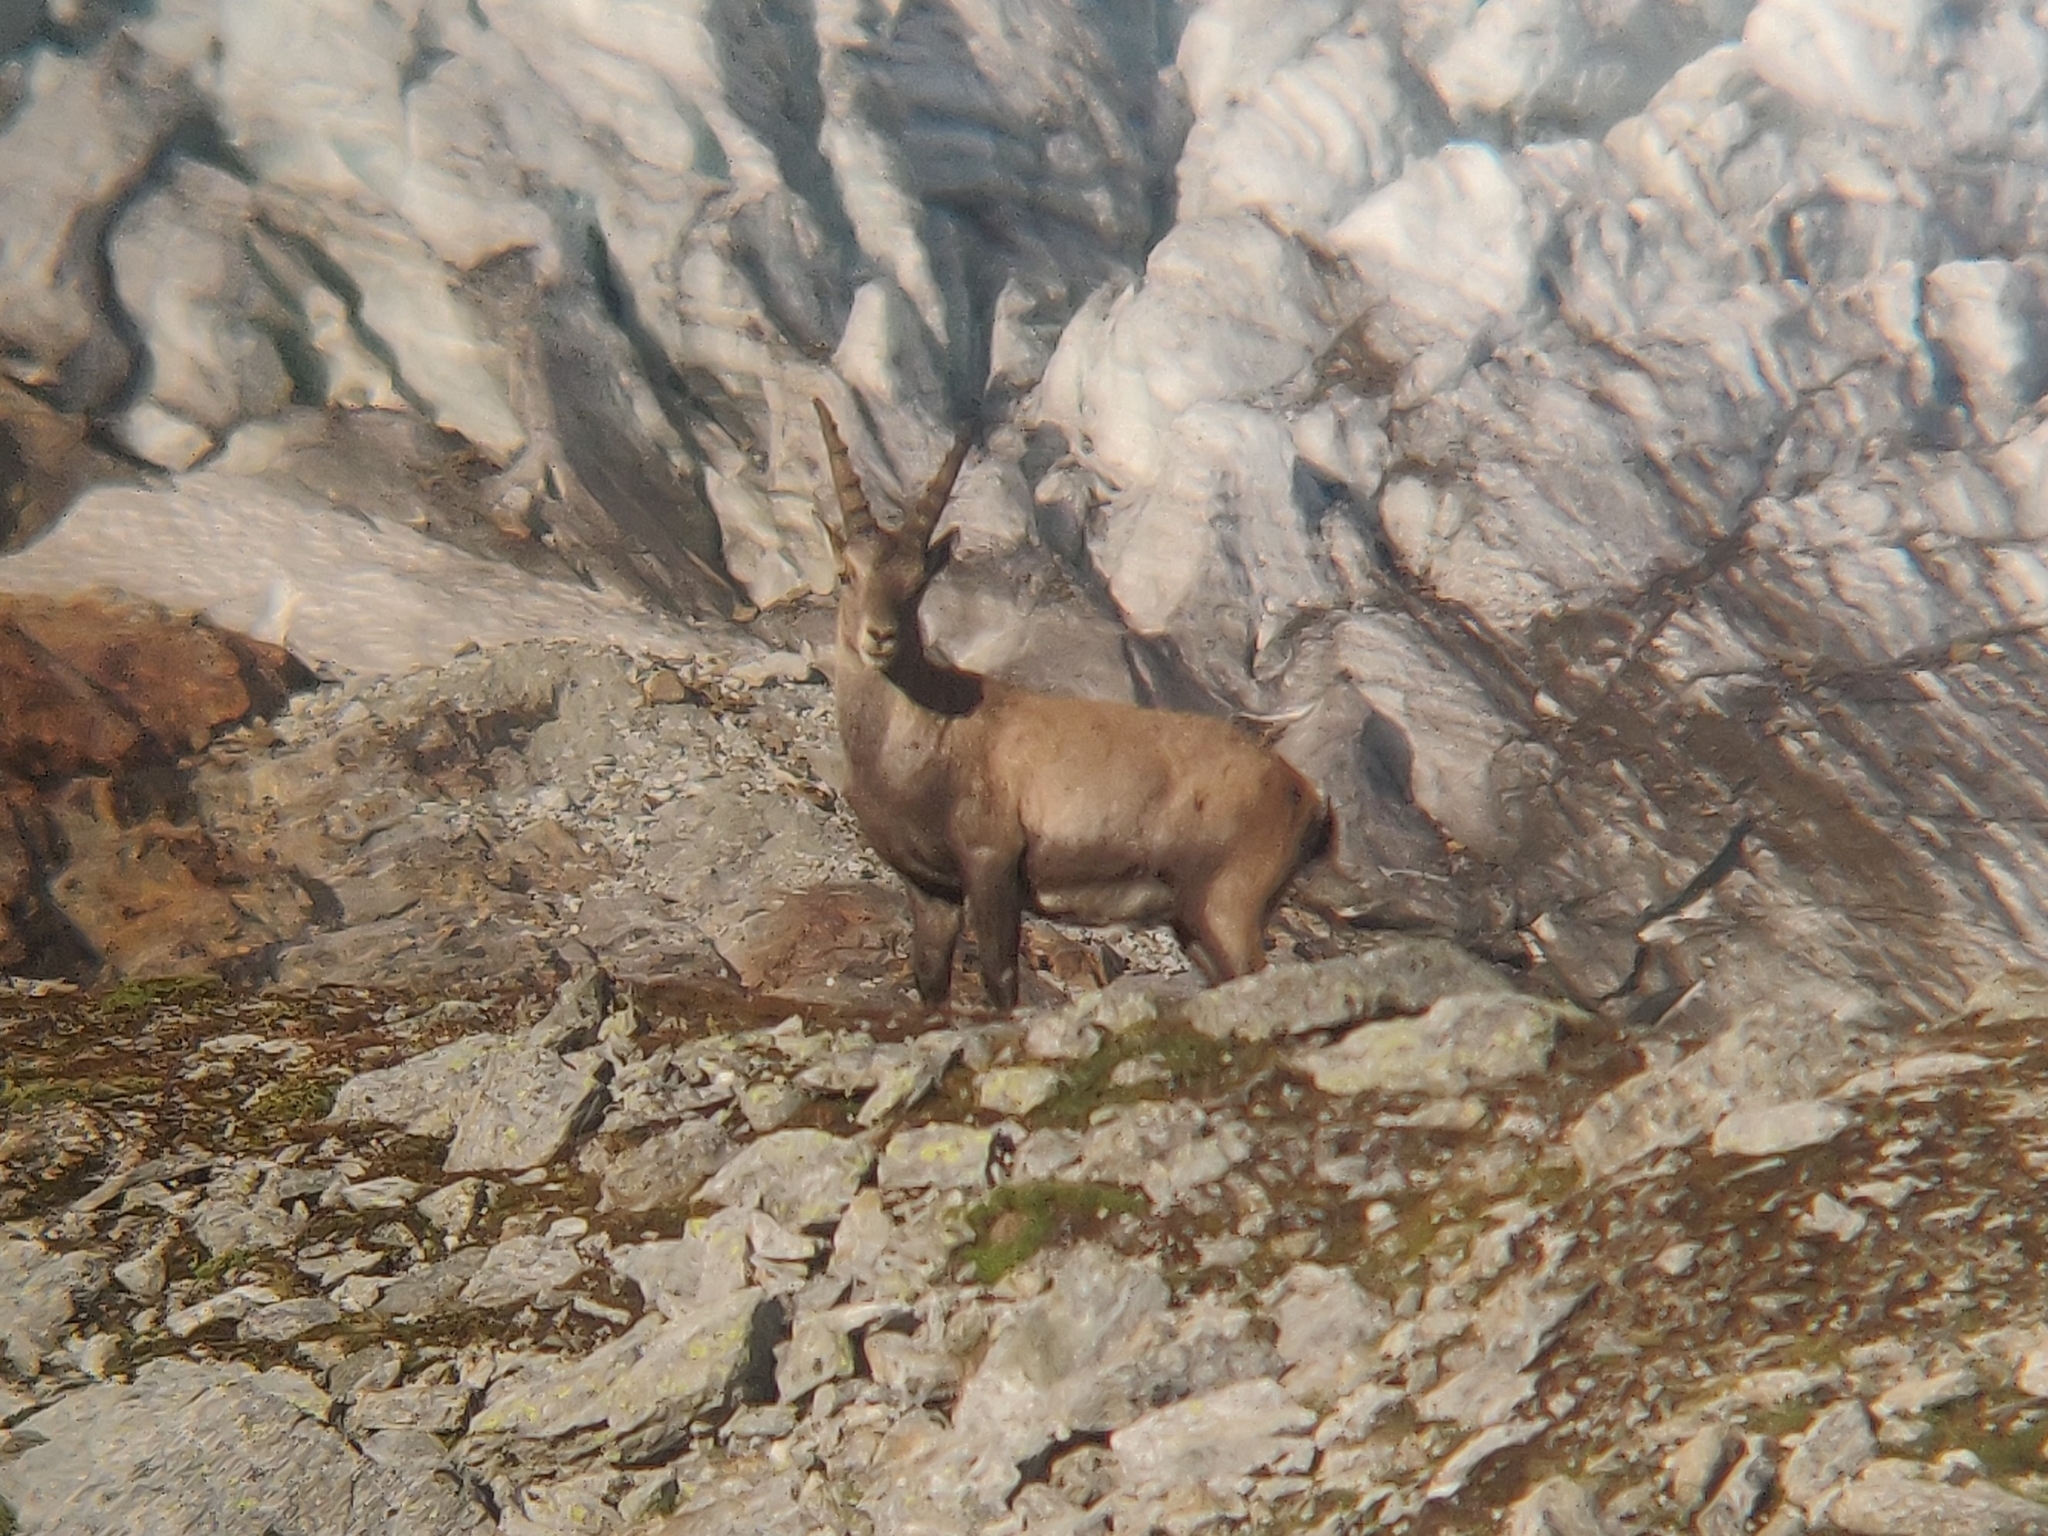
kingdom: Animalia
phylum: Chordata
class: Mammalia
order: Artiodactyla
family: Bovidae
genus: Capra
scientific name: Capra ibex
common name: Alpine ibex
